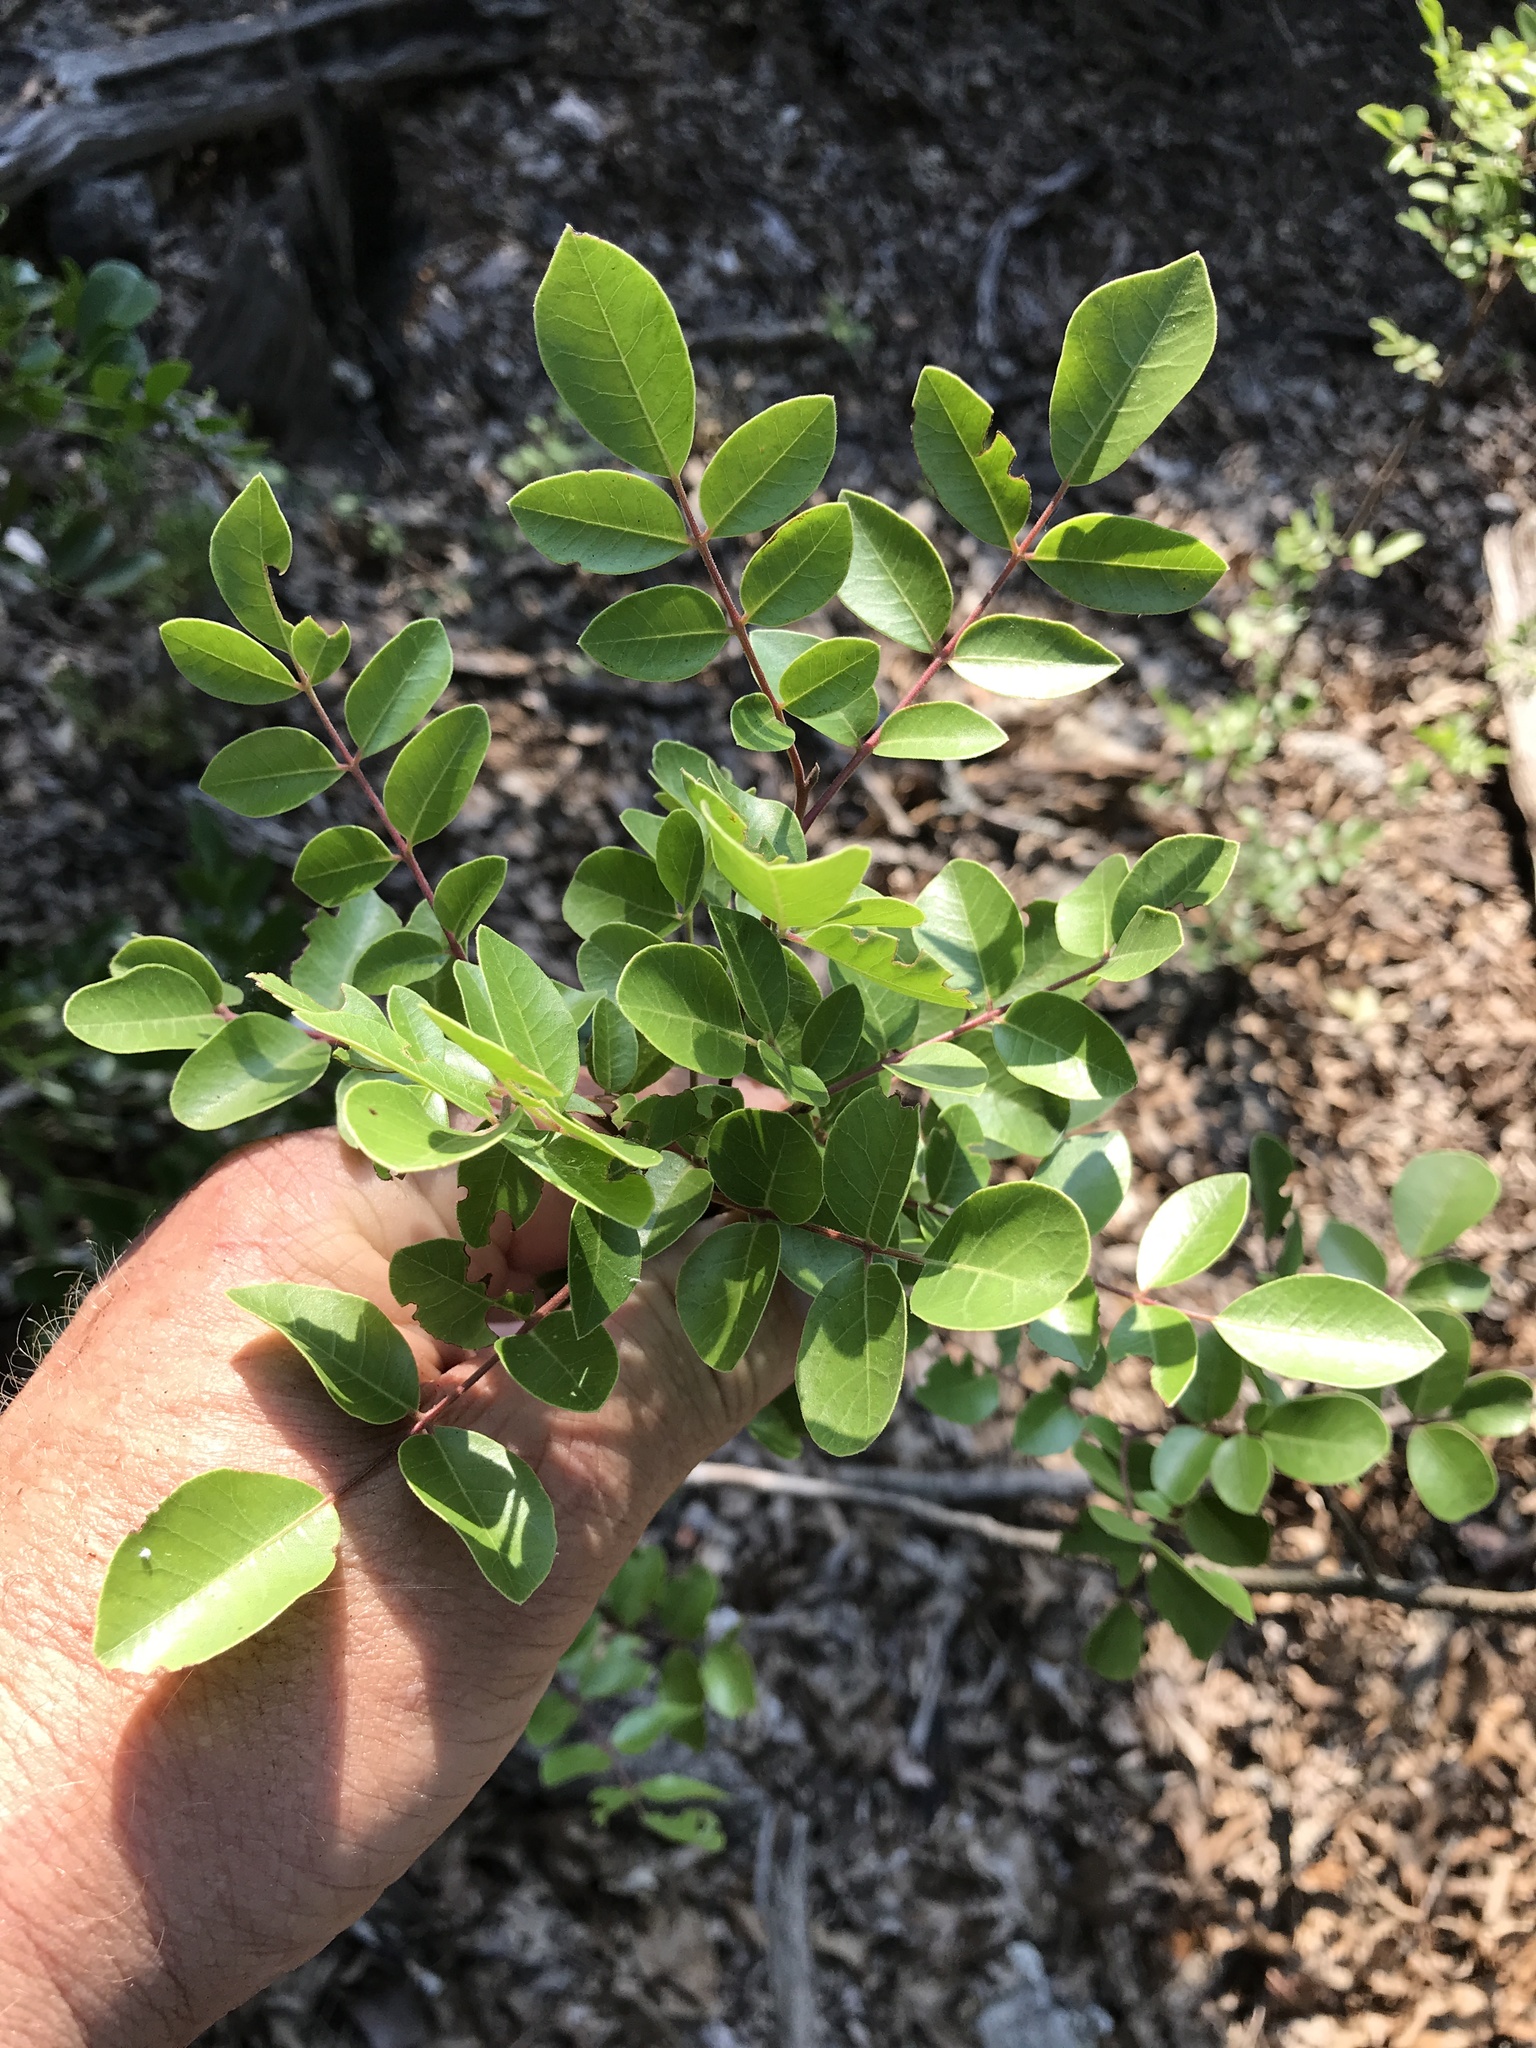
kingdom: Plantae
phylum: Tracheophyta
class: Magnoliopsida
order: Sapindales
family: Anacardiaceae
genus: Rhus
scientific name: Rhus virens
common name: Evergreen sumac
